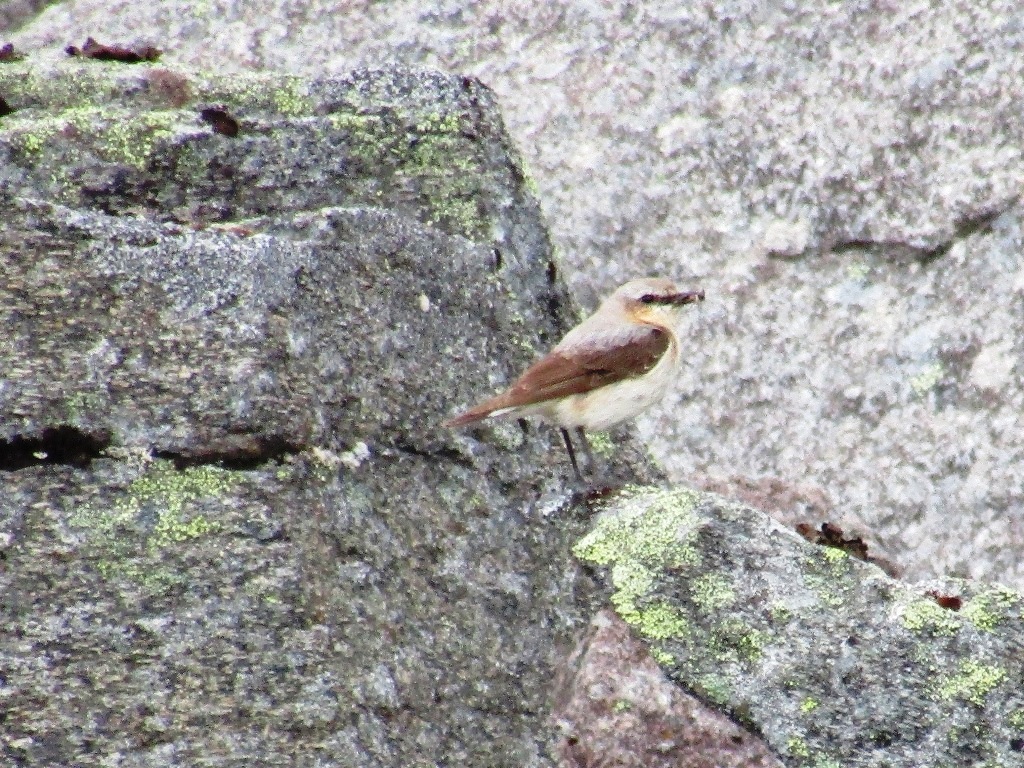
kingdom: Animalia
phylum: Chordata
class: Aves
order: Passeriformes
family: Muscicapidae
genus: Oenanthe
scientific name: Oenanthe oenanthe
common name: Northern wheatear
